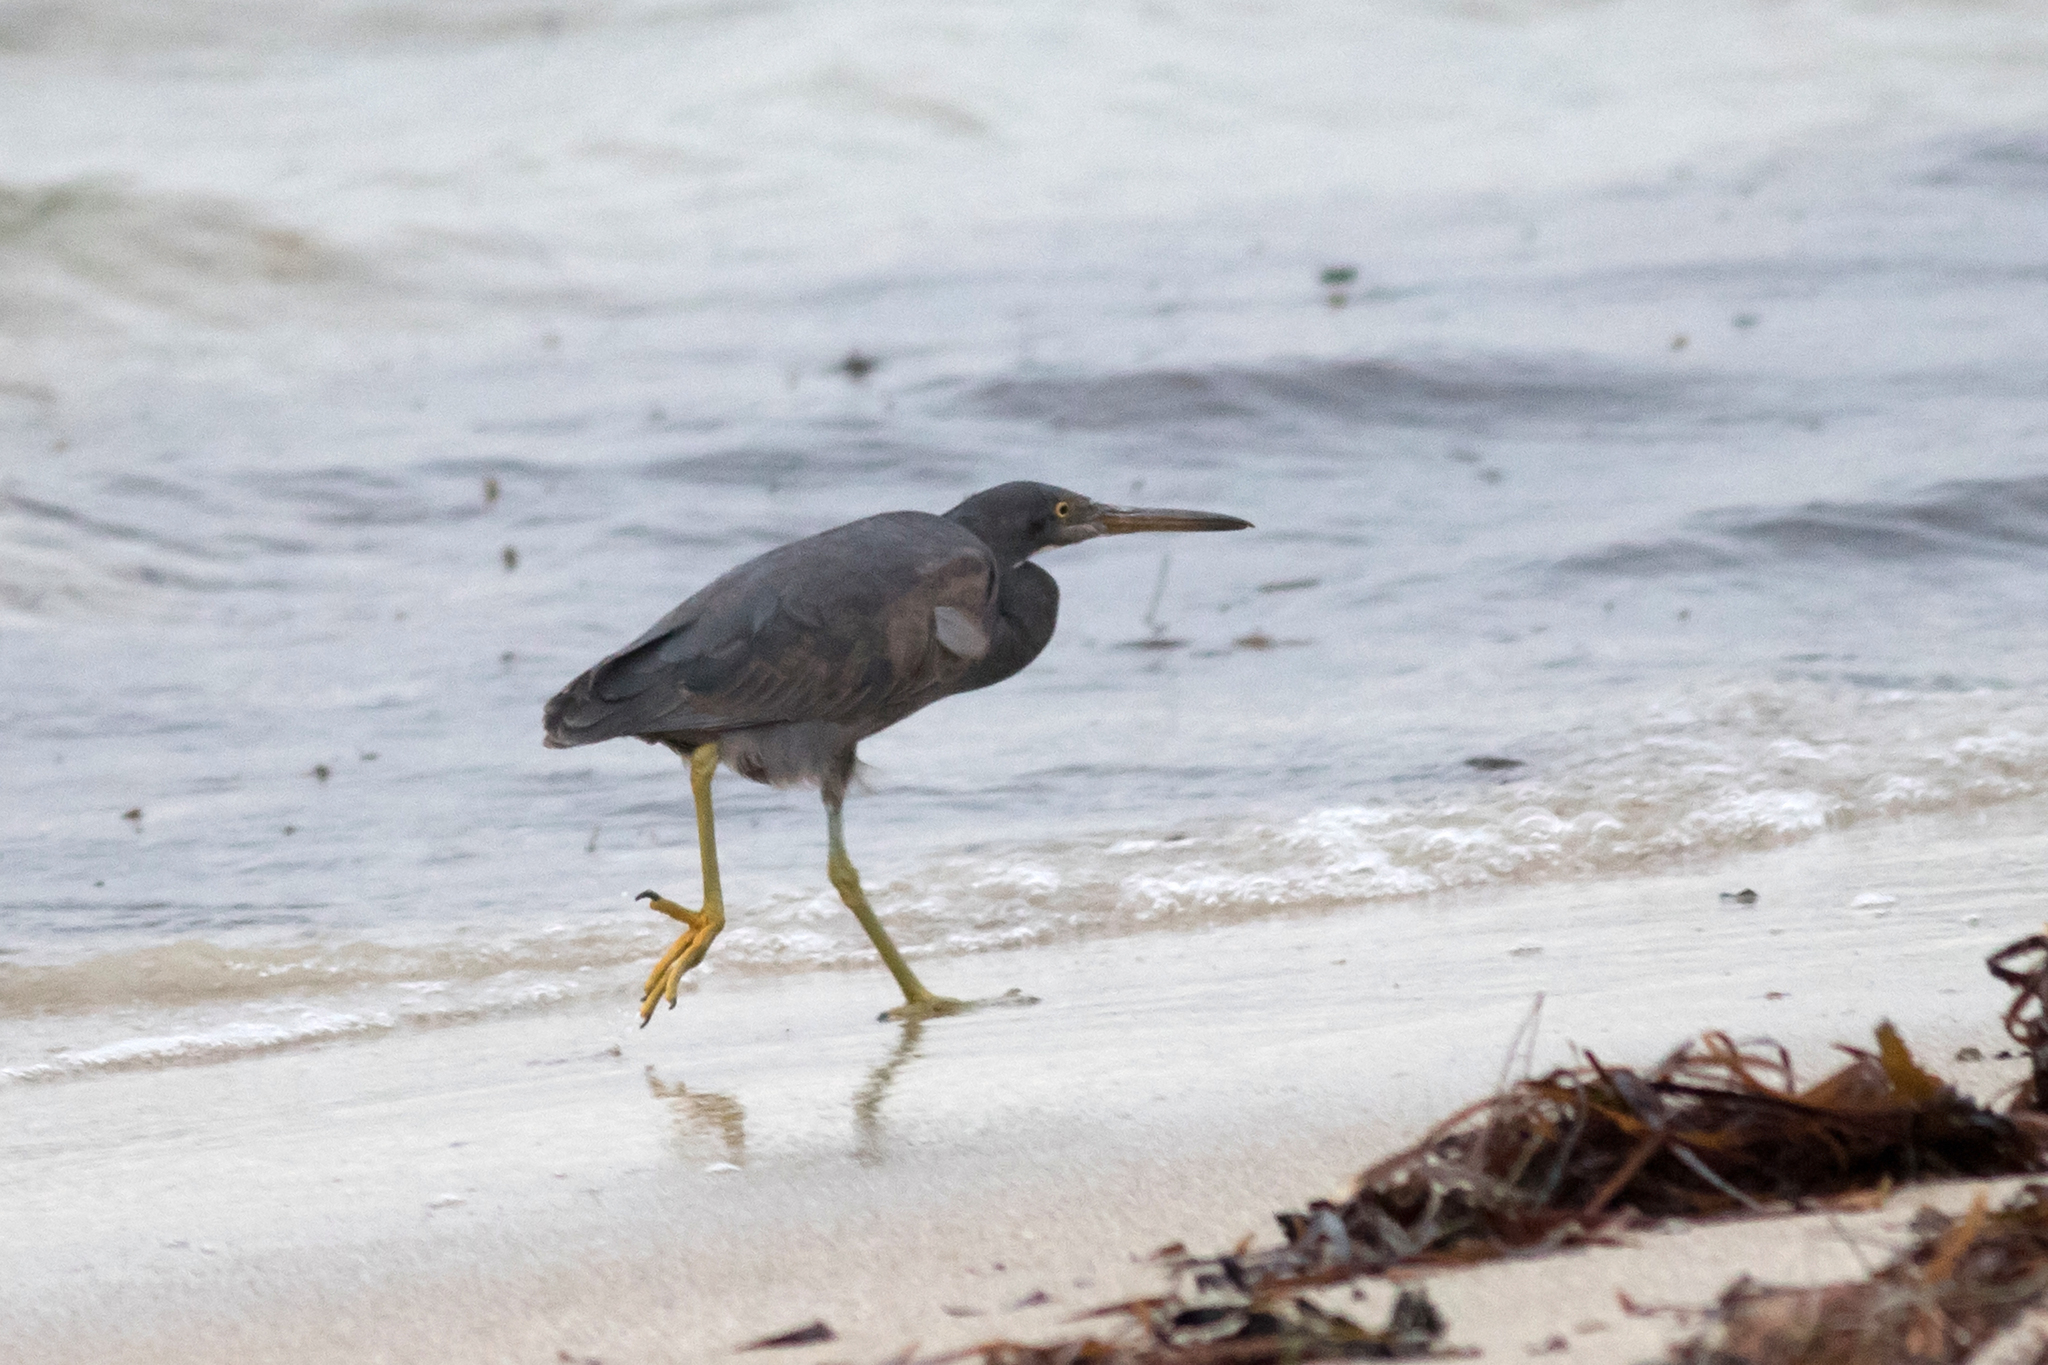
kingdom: Animalia
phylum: Chordata
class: Aves
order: Pelecaniformes
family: Ardeidae
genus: Egretta
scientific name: Egretta sacra
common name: Pacific reef heron
